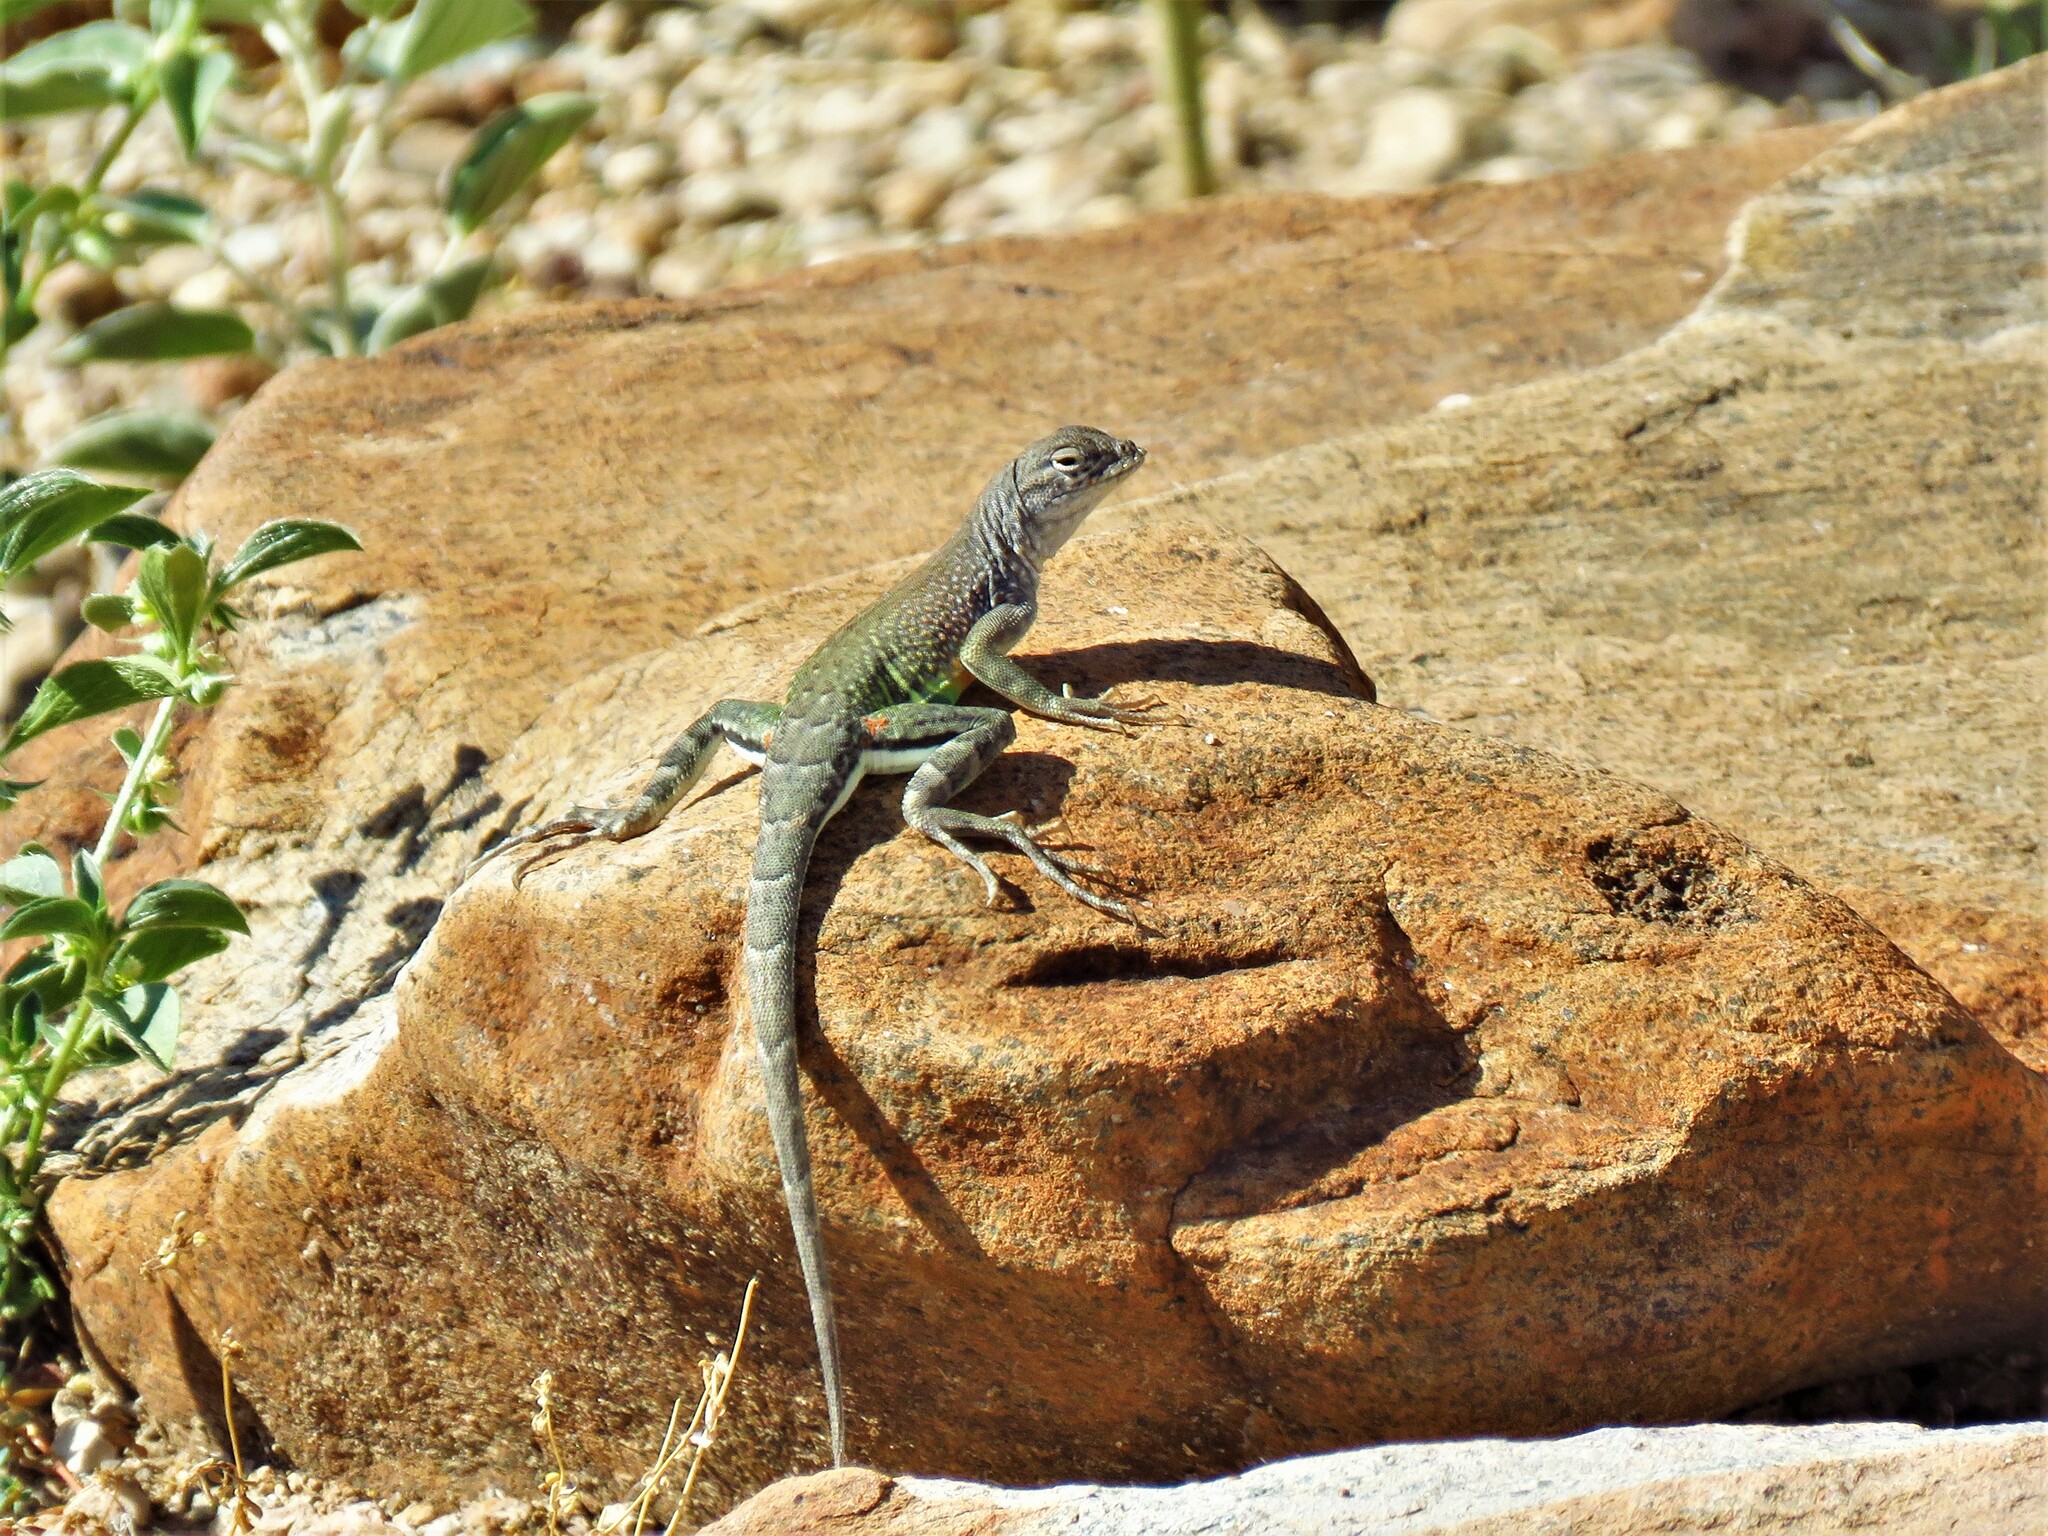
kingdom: Animalia
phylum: Chordata
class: Squamata
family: Phrynosomatidae
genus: Cophosaurus
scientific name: Cophosaurus texanus
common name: Greater earless lizard
